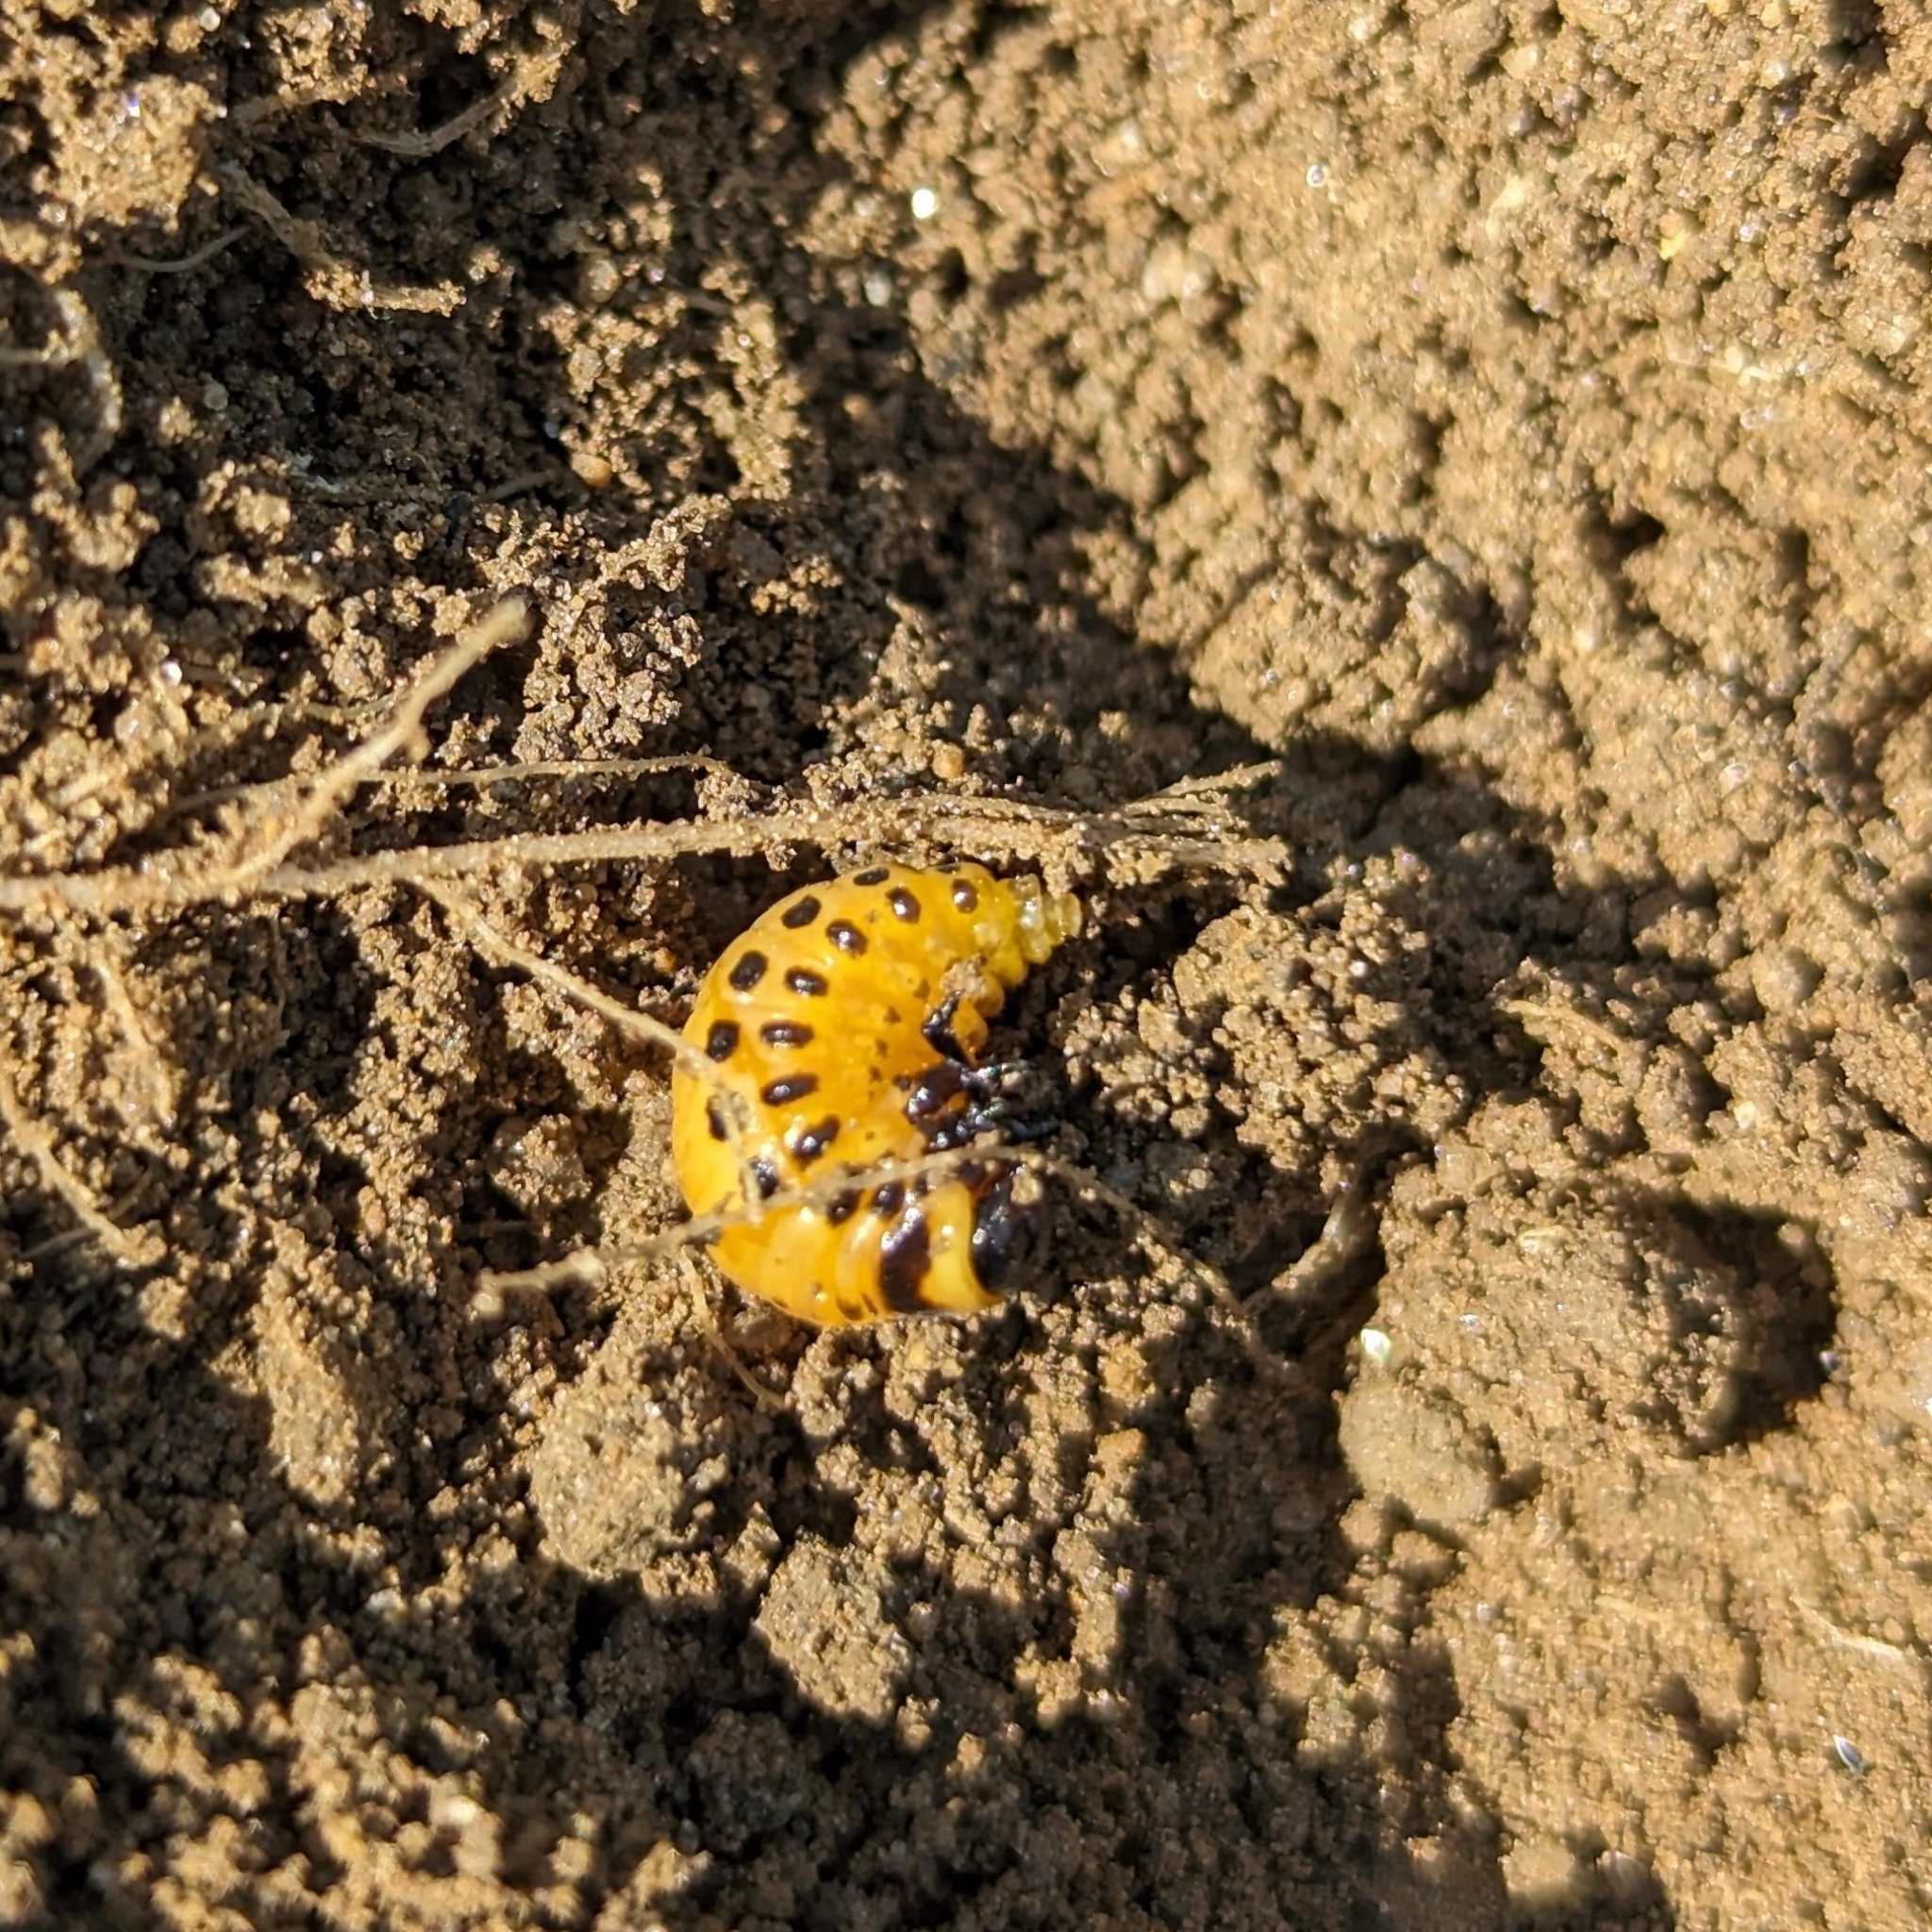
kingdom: Animalia
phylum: Arthropoda
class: Insecta
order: Coleoptera
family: Chrysomelidae
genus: Leptinotarsa
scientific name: Leptinotarsa decemlineata
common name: Colorado potato beetle
